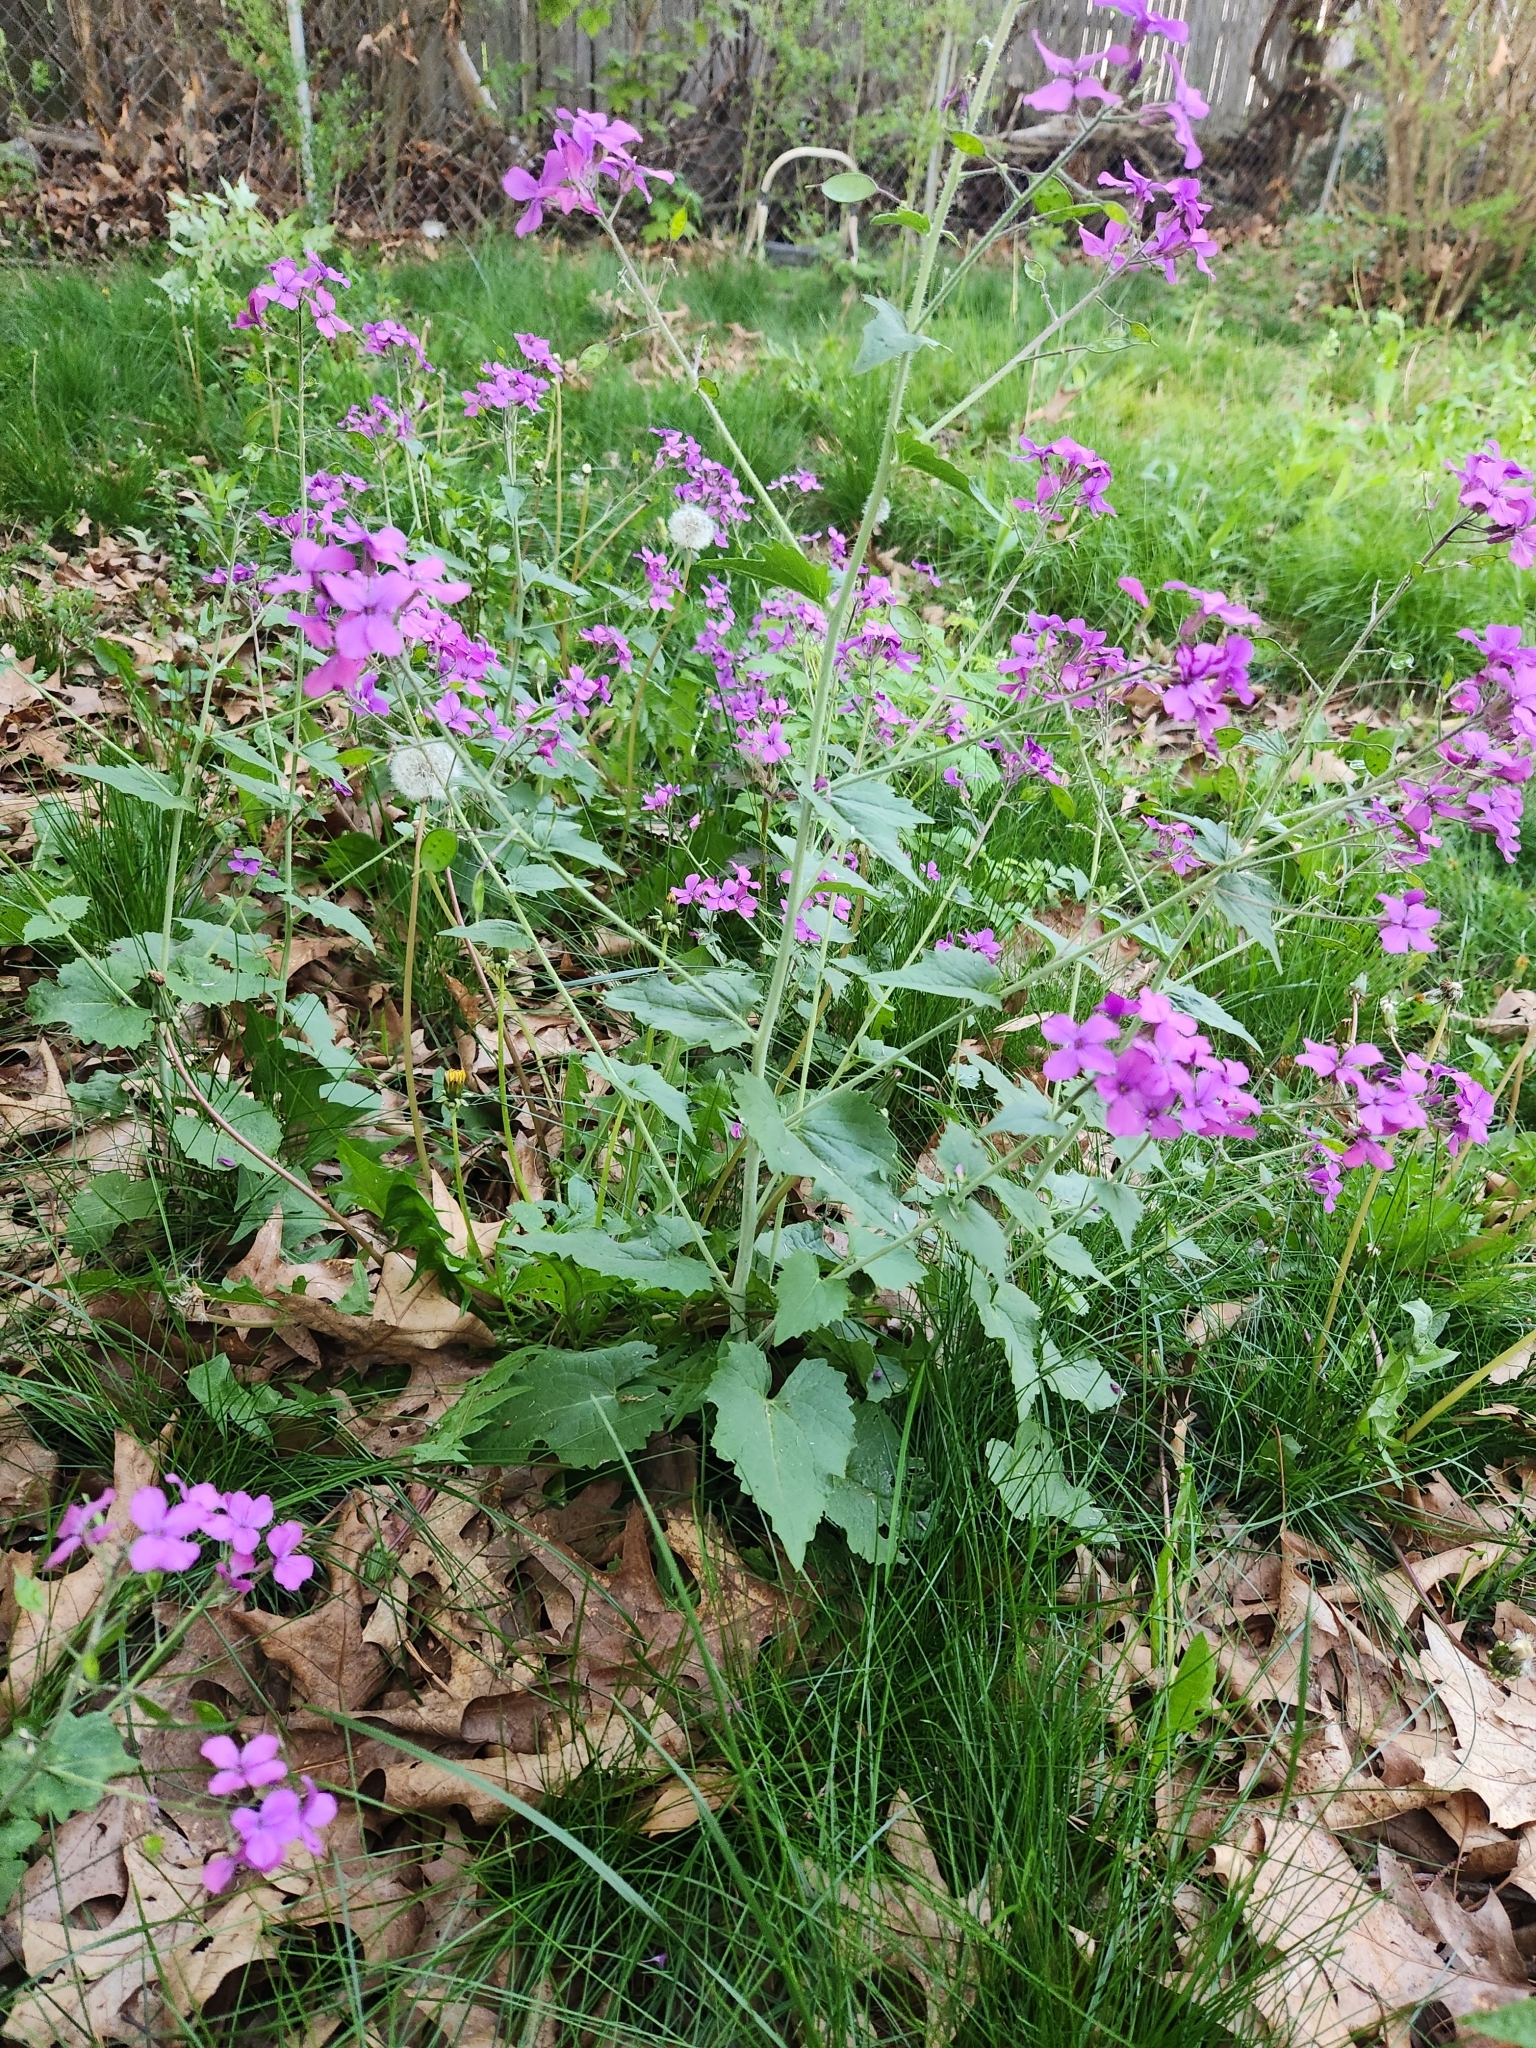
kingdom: Plantae
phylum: Tracheophyta
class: Magnoliopsida
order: Brassicales
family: Brassicaceae
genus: Lunaria
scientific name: Lunaria annua
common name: Honesty
